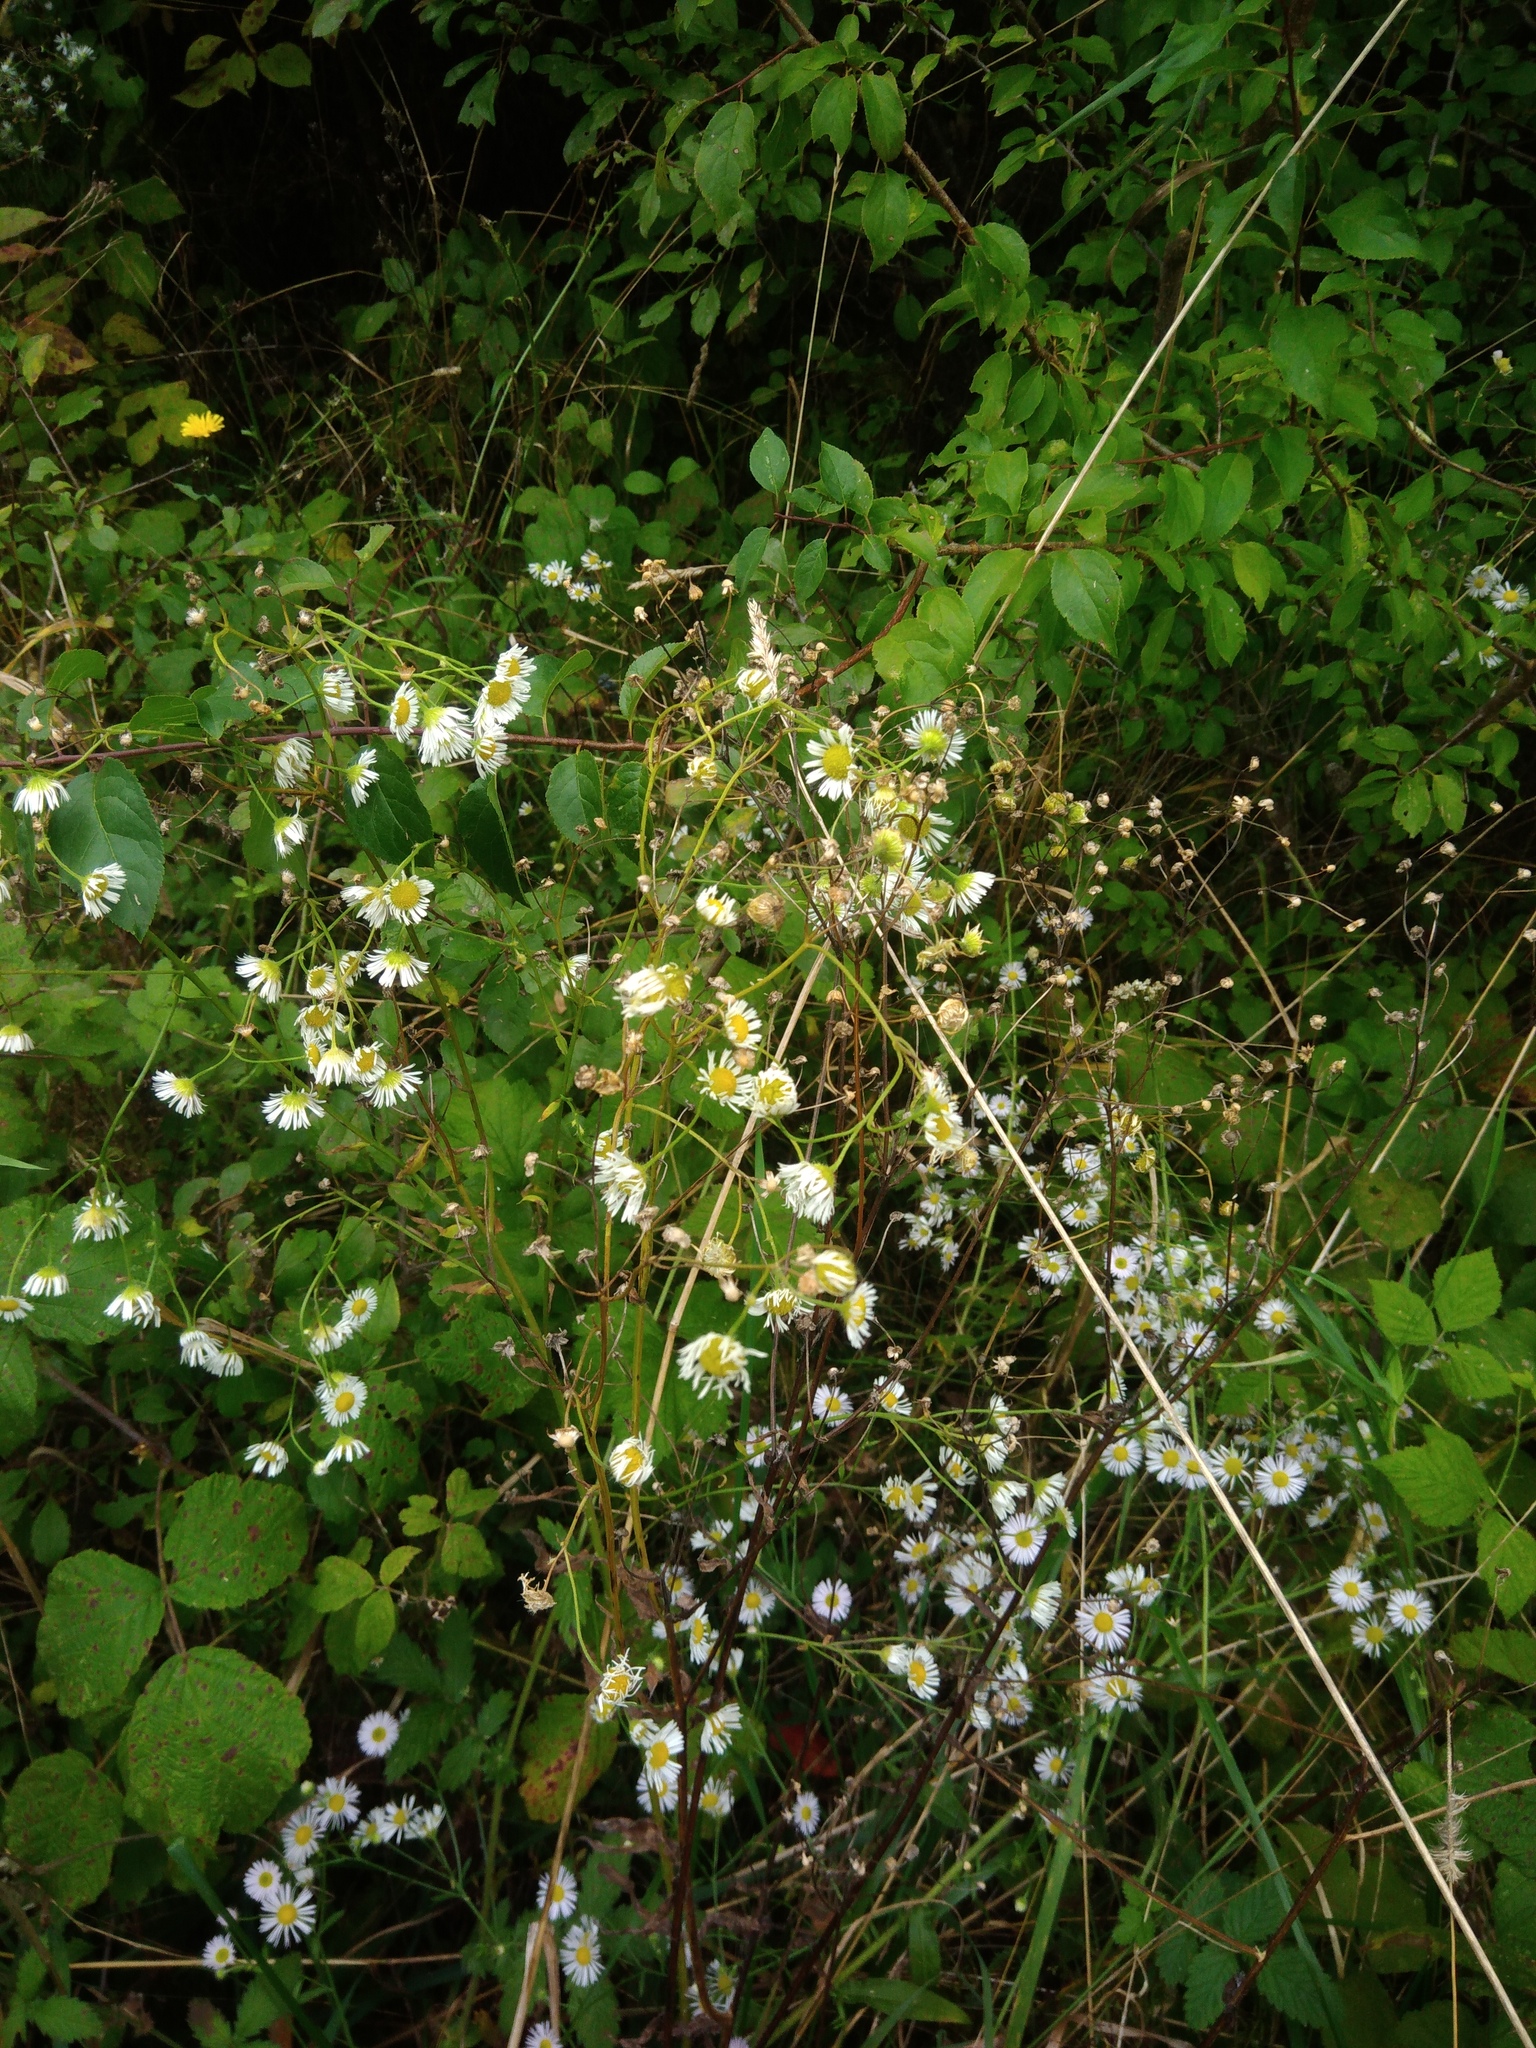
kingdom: Plantae
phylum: Tracheophyta
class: Magnoliopsida
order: Asterales
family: Asteraceae
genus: Erigeron
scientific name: Erigeron annuus
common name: Tall fleabane
